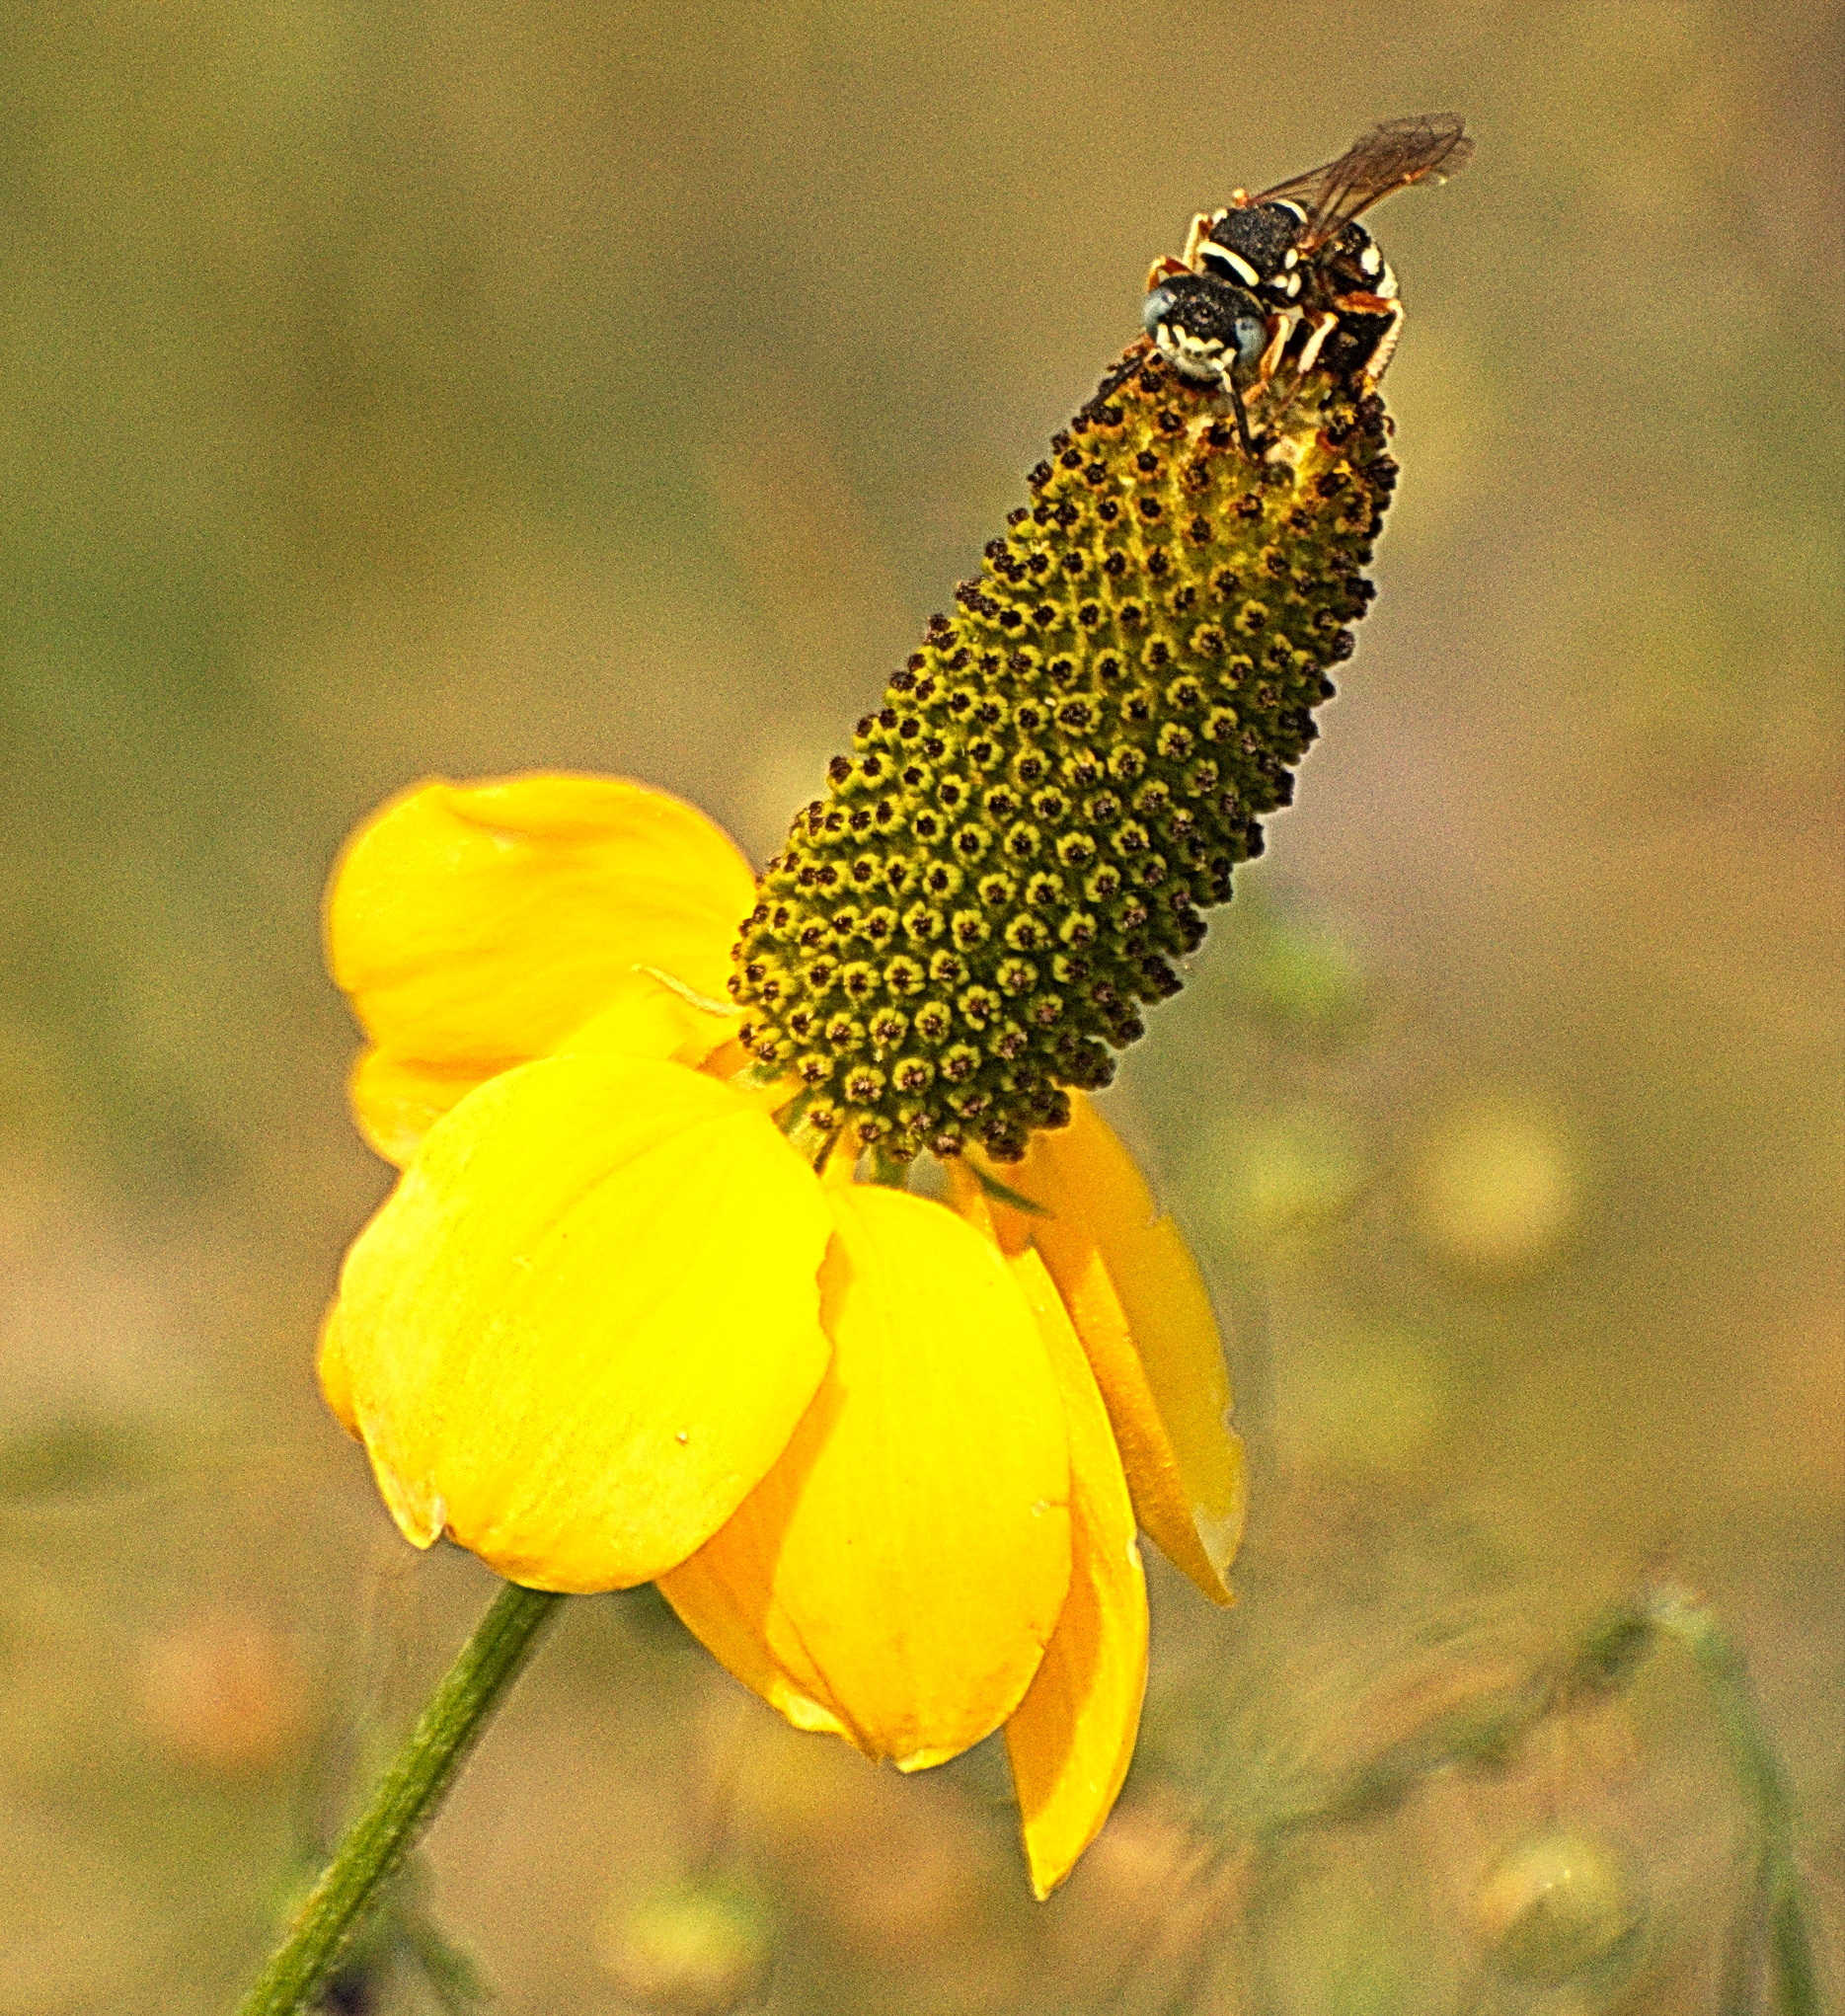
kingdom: Animalia
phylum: Arthropoda
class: Insecta
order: Hymenoptera
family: Crabronidae
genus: Philanthus
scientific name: Philanthus ventilabris
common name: Bee-killer wasp
